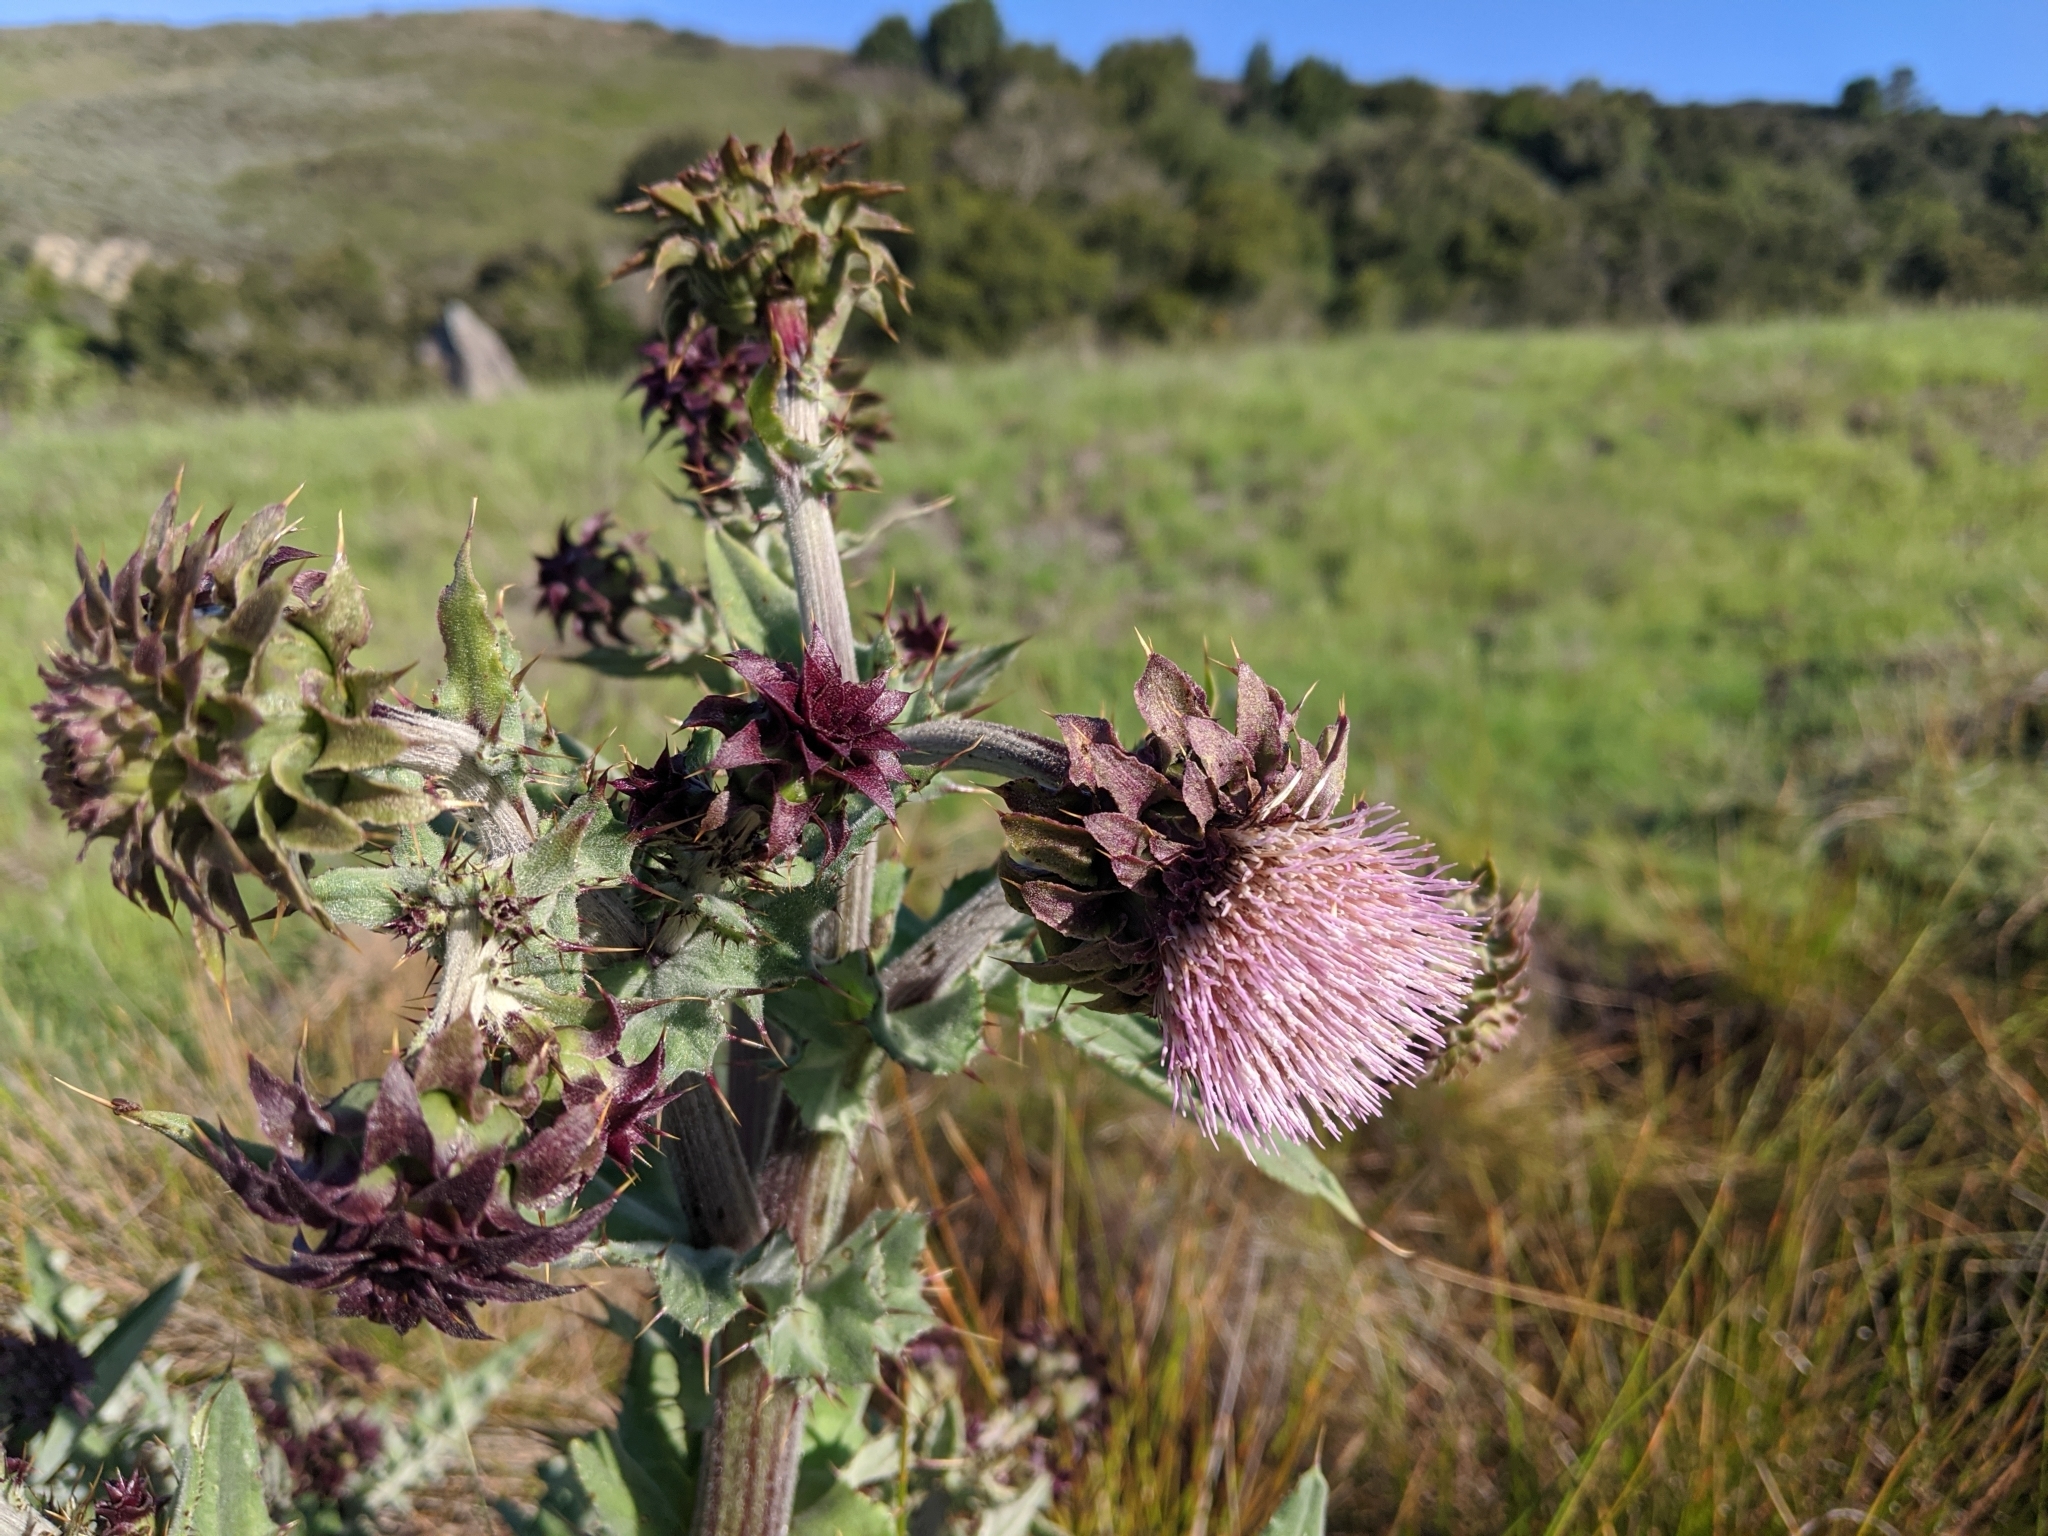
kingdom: Plantae
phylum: Tracheophyta
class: Magnoliopsida
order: Asterales
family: Asteraceae
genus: Cirsium
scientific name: Cirsium fontinale
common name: Fountain thistle
